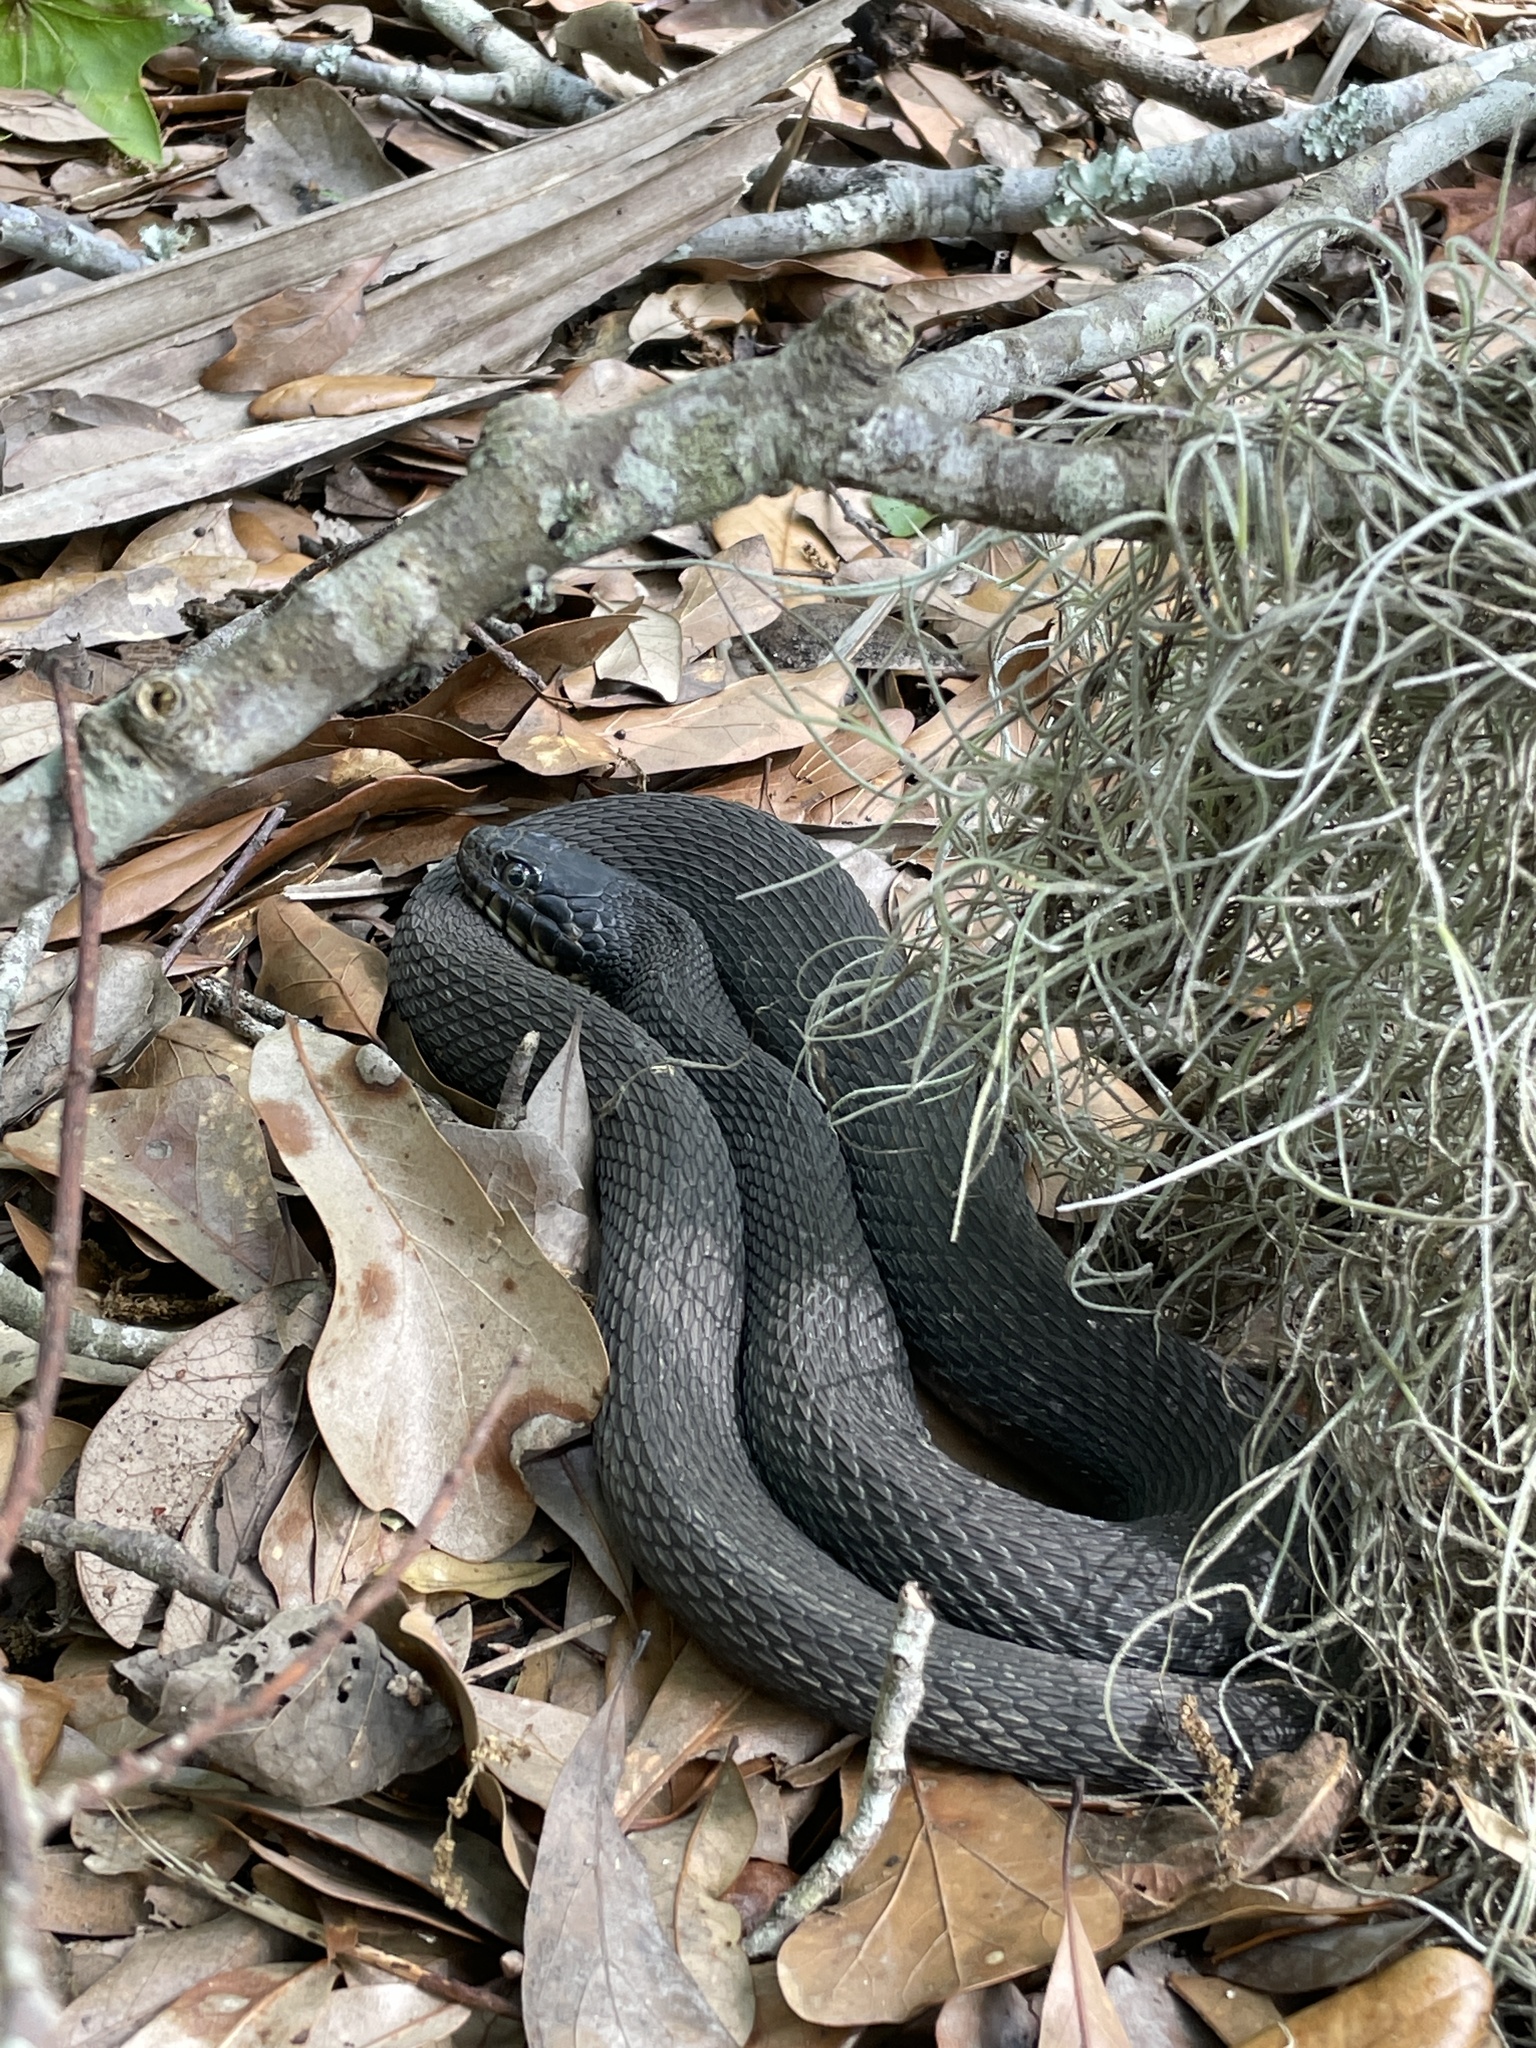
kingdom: Animalia
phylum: Chordata
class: Squamata
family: Colubridae
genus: Nerodia
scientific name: Nerodia erythrogaster
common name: Plainbelly water snake
